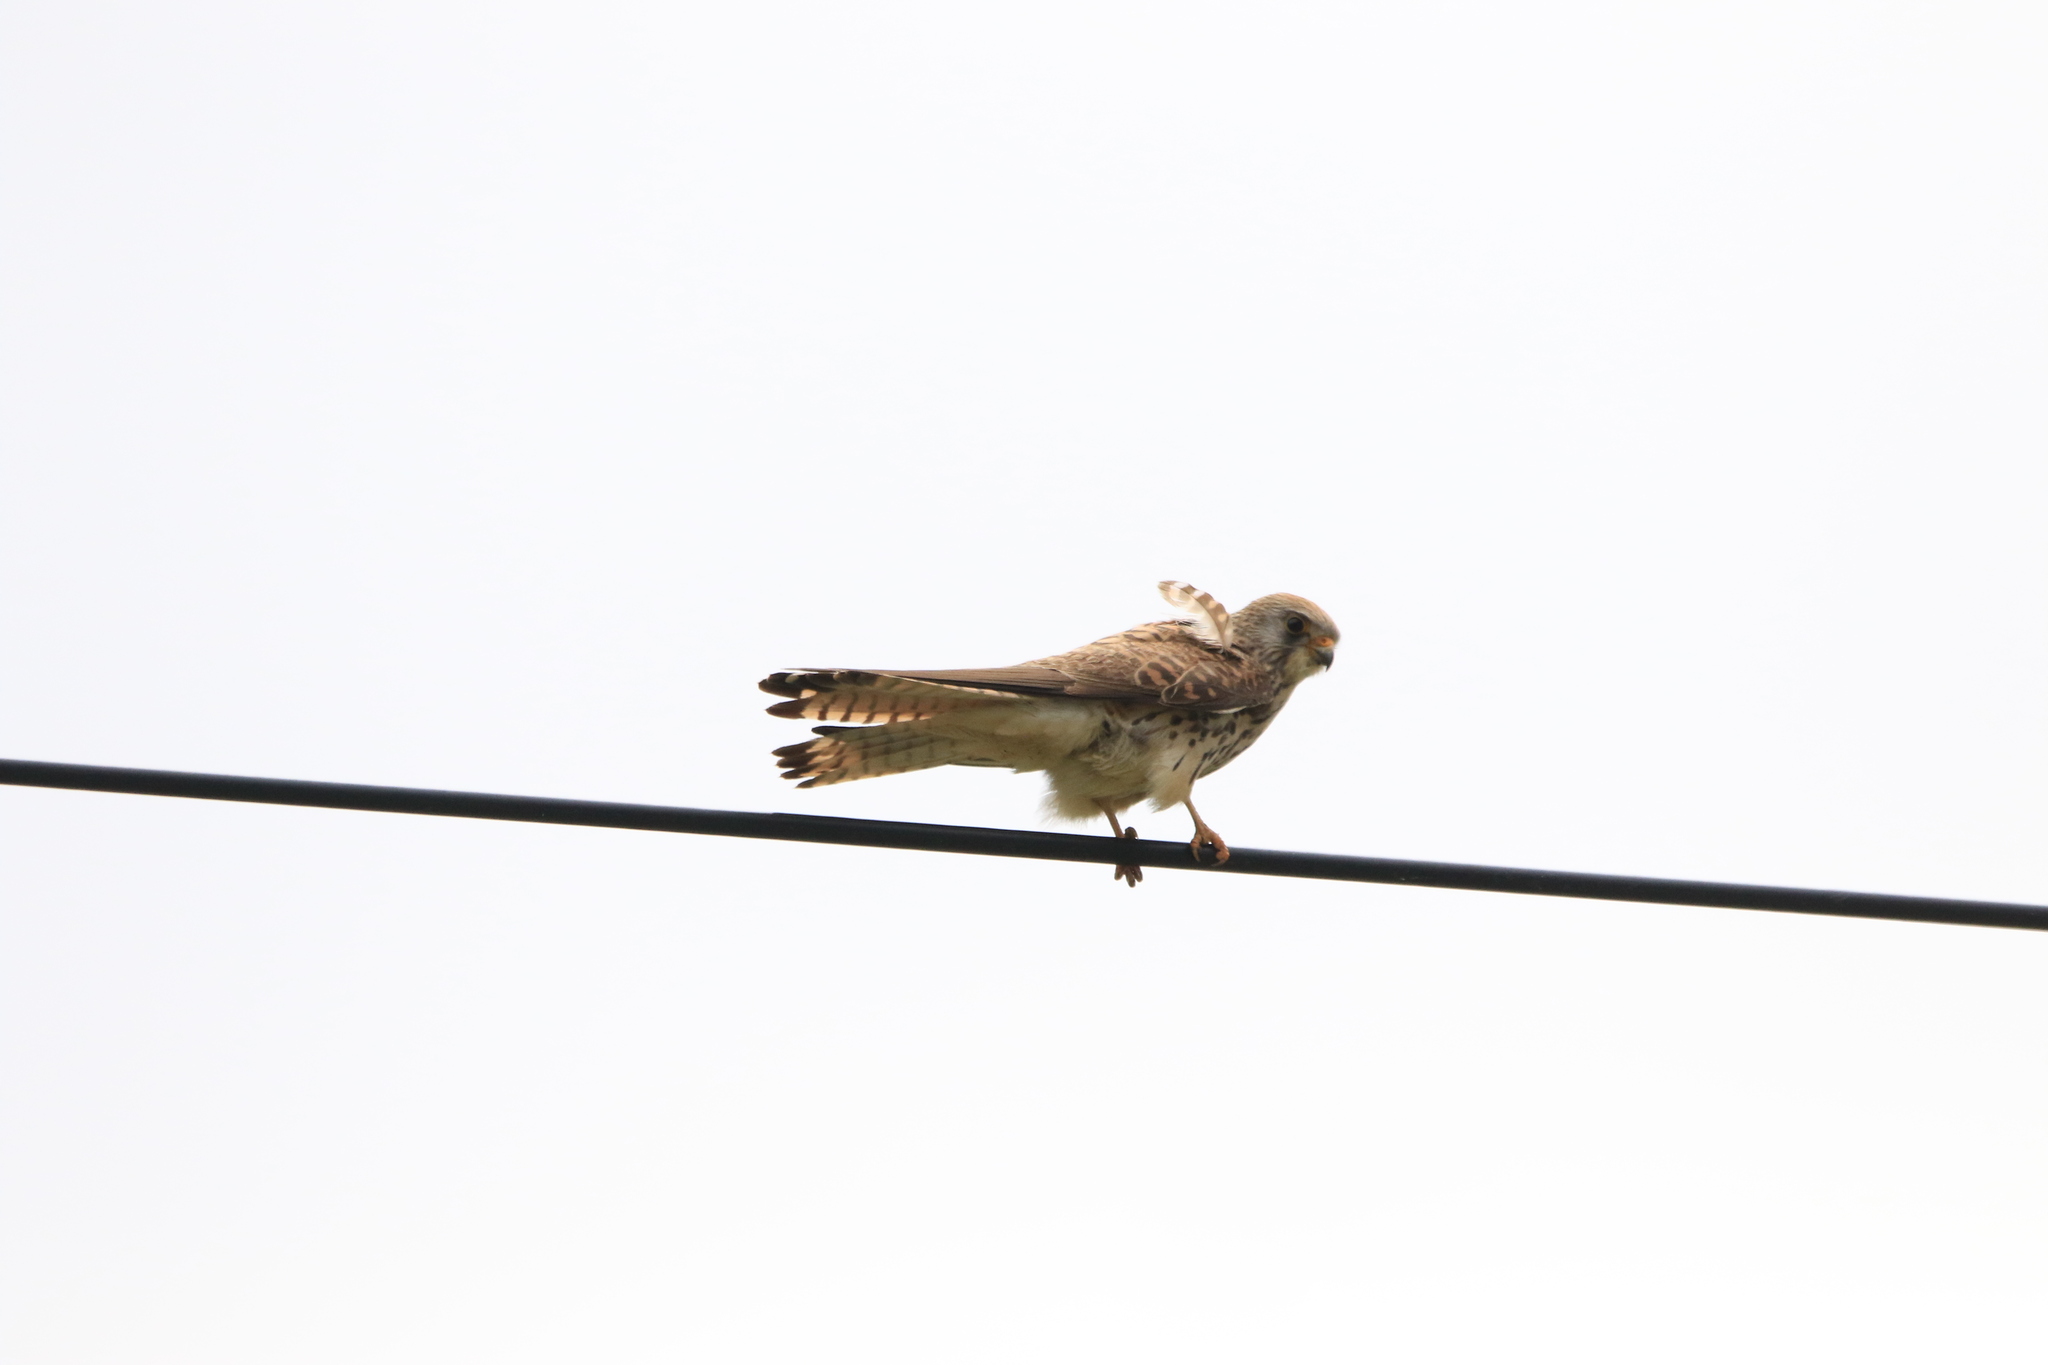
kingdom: Animalia
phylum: Chordata
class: Aves
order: Falconiformes
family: Falconidae
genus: Falco
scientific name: Falco naumanni
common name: Lesser kestrel
